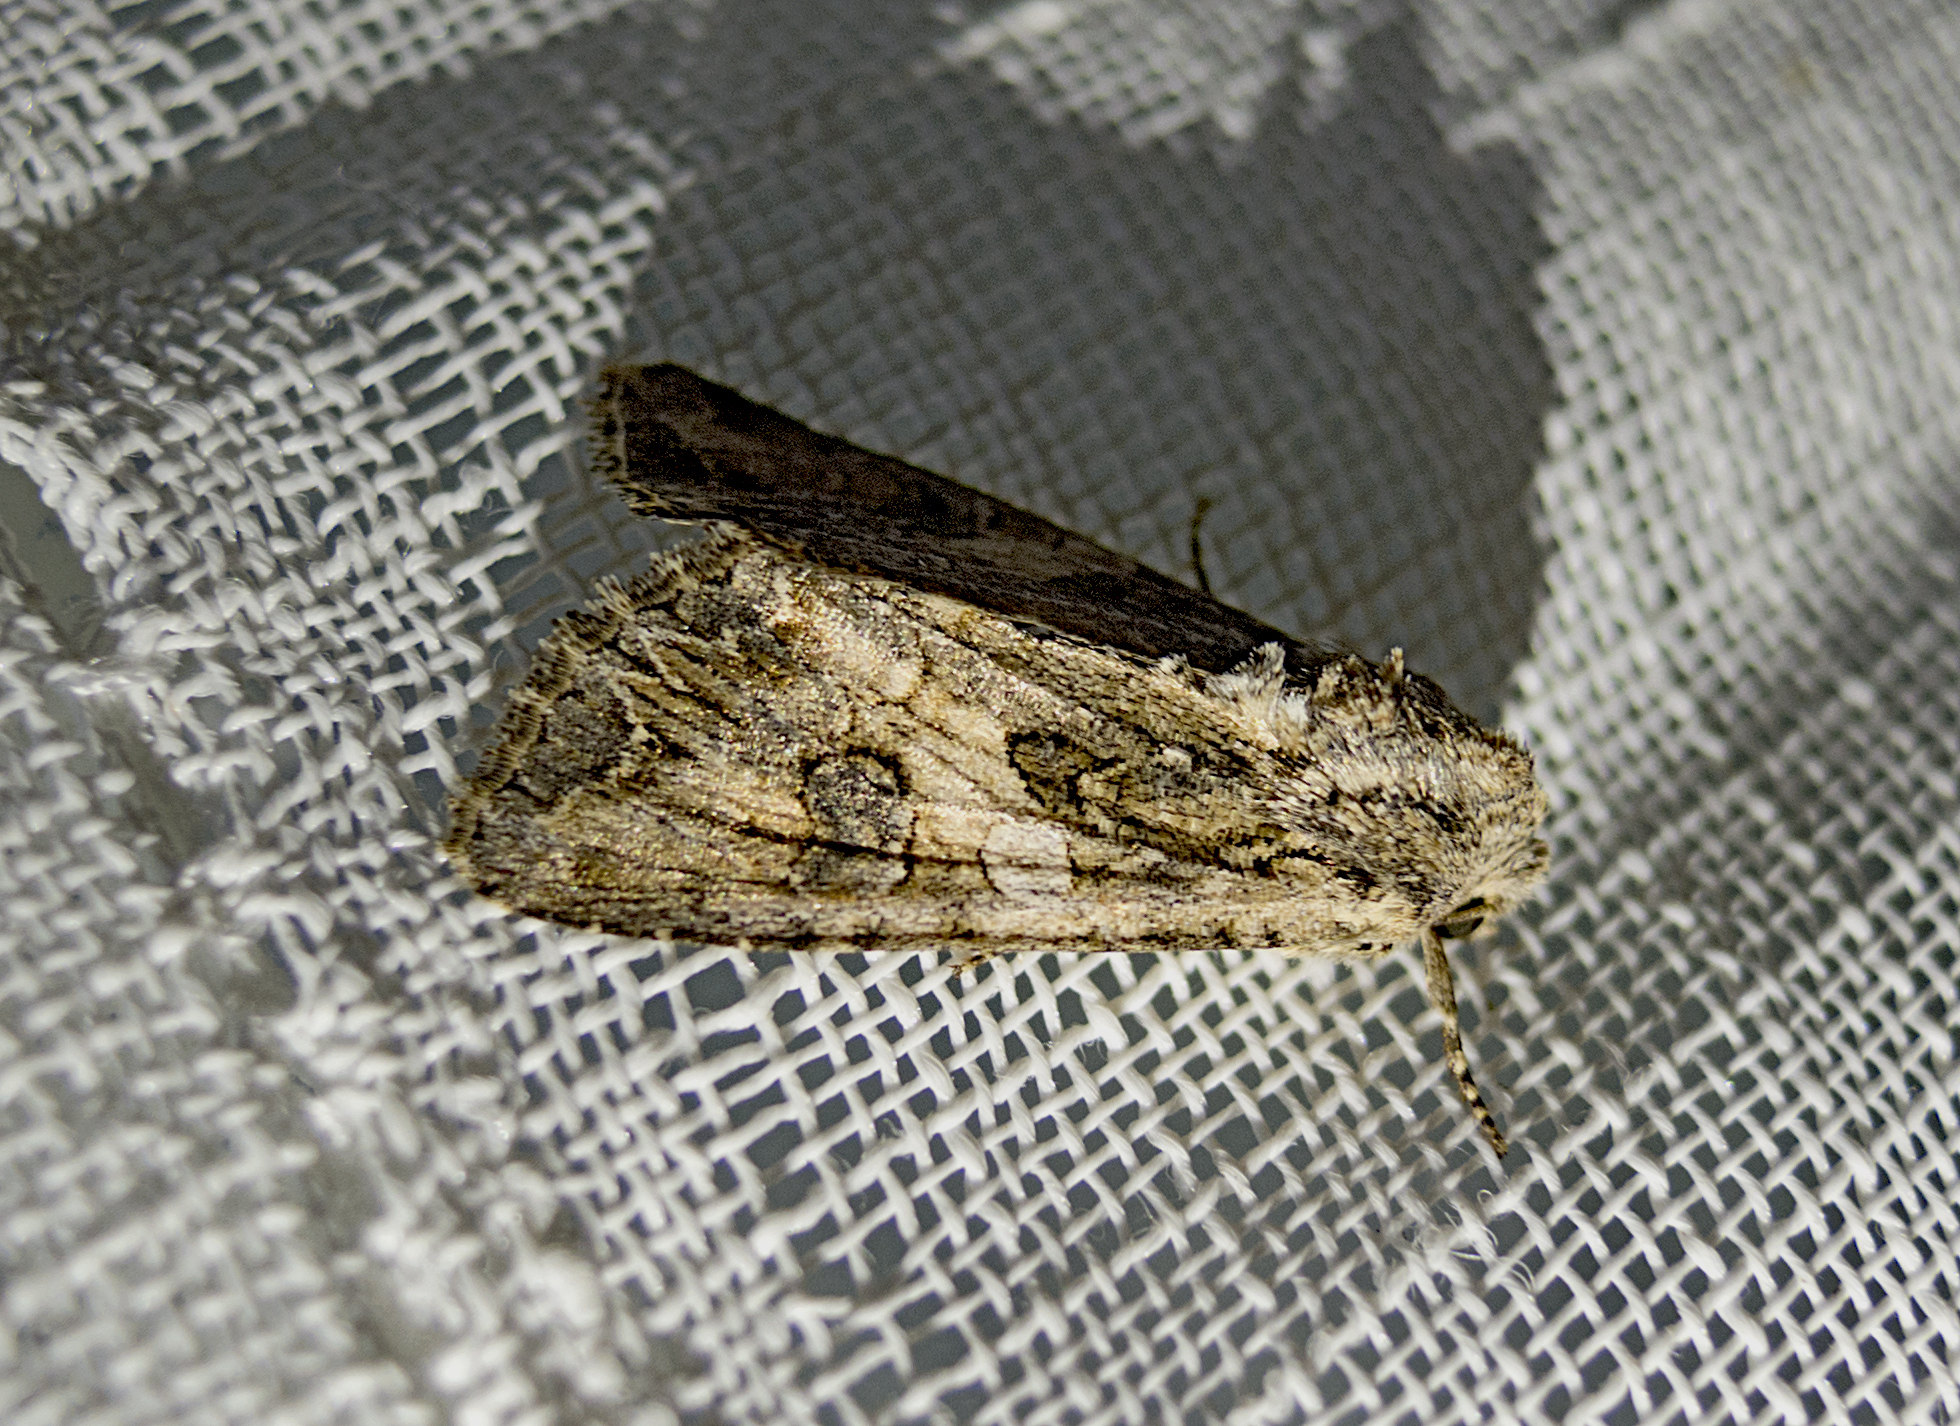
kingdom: Animalia
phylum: Arthropoda
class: Insecta
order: Lepidoptera
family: Noctuidae
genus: Anarta
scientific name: Anarta trifolii
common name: Clover cutworm moth
